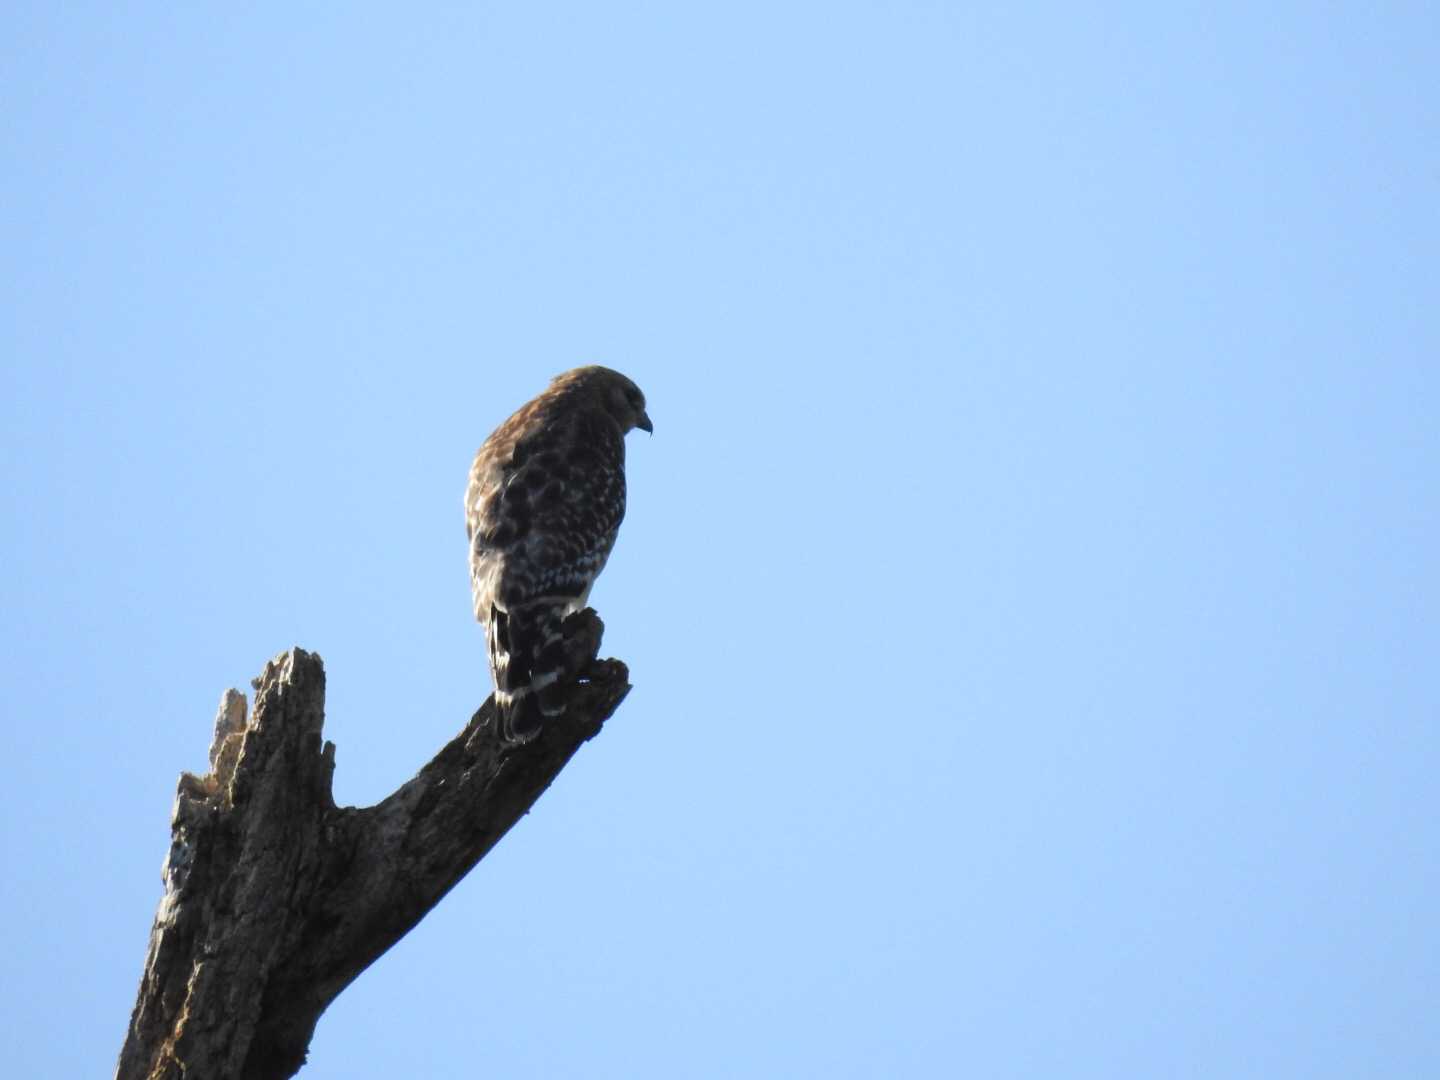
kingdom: Animalia
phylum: Chordata
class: Aves
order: Accipitriformes
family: Accipitridae
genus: Buteo
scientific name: Buteo lineatus
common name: Red-shouldered hawk
